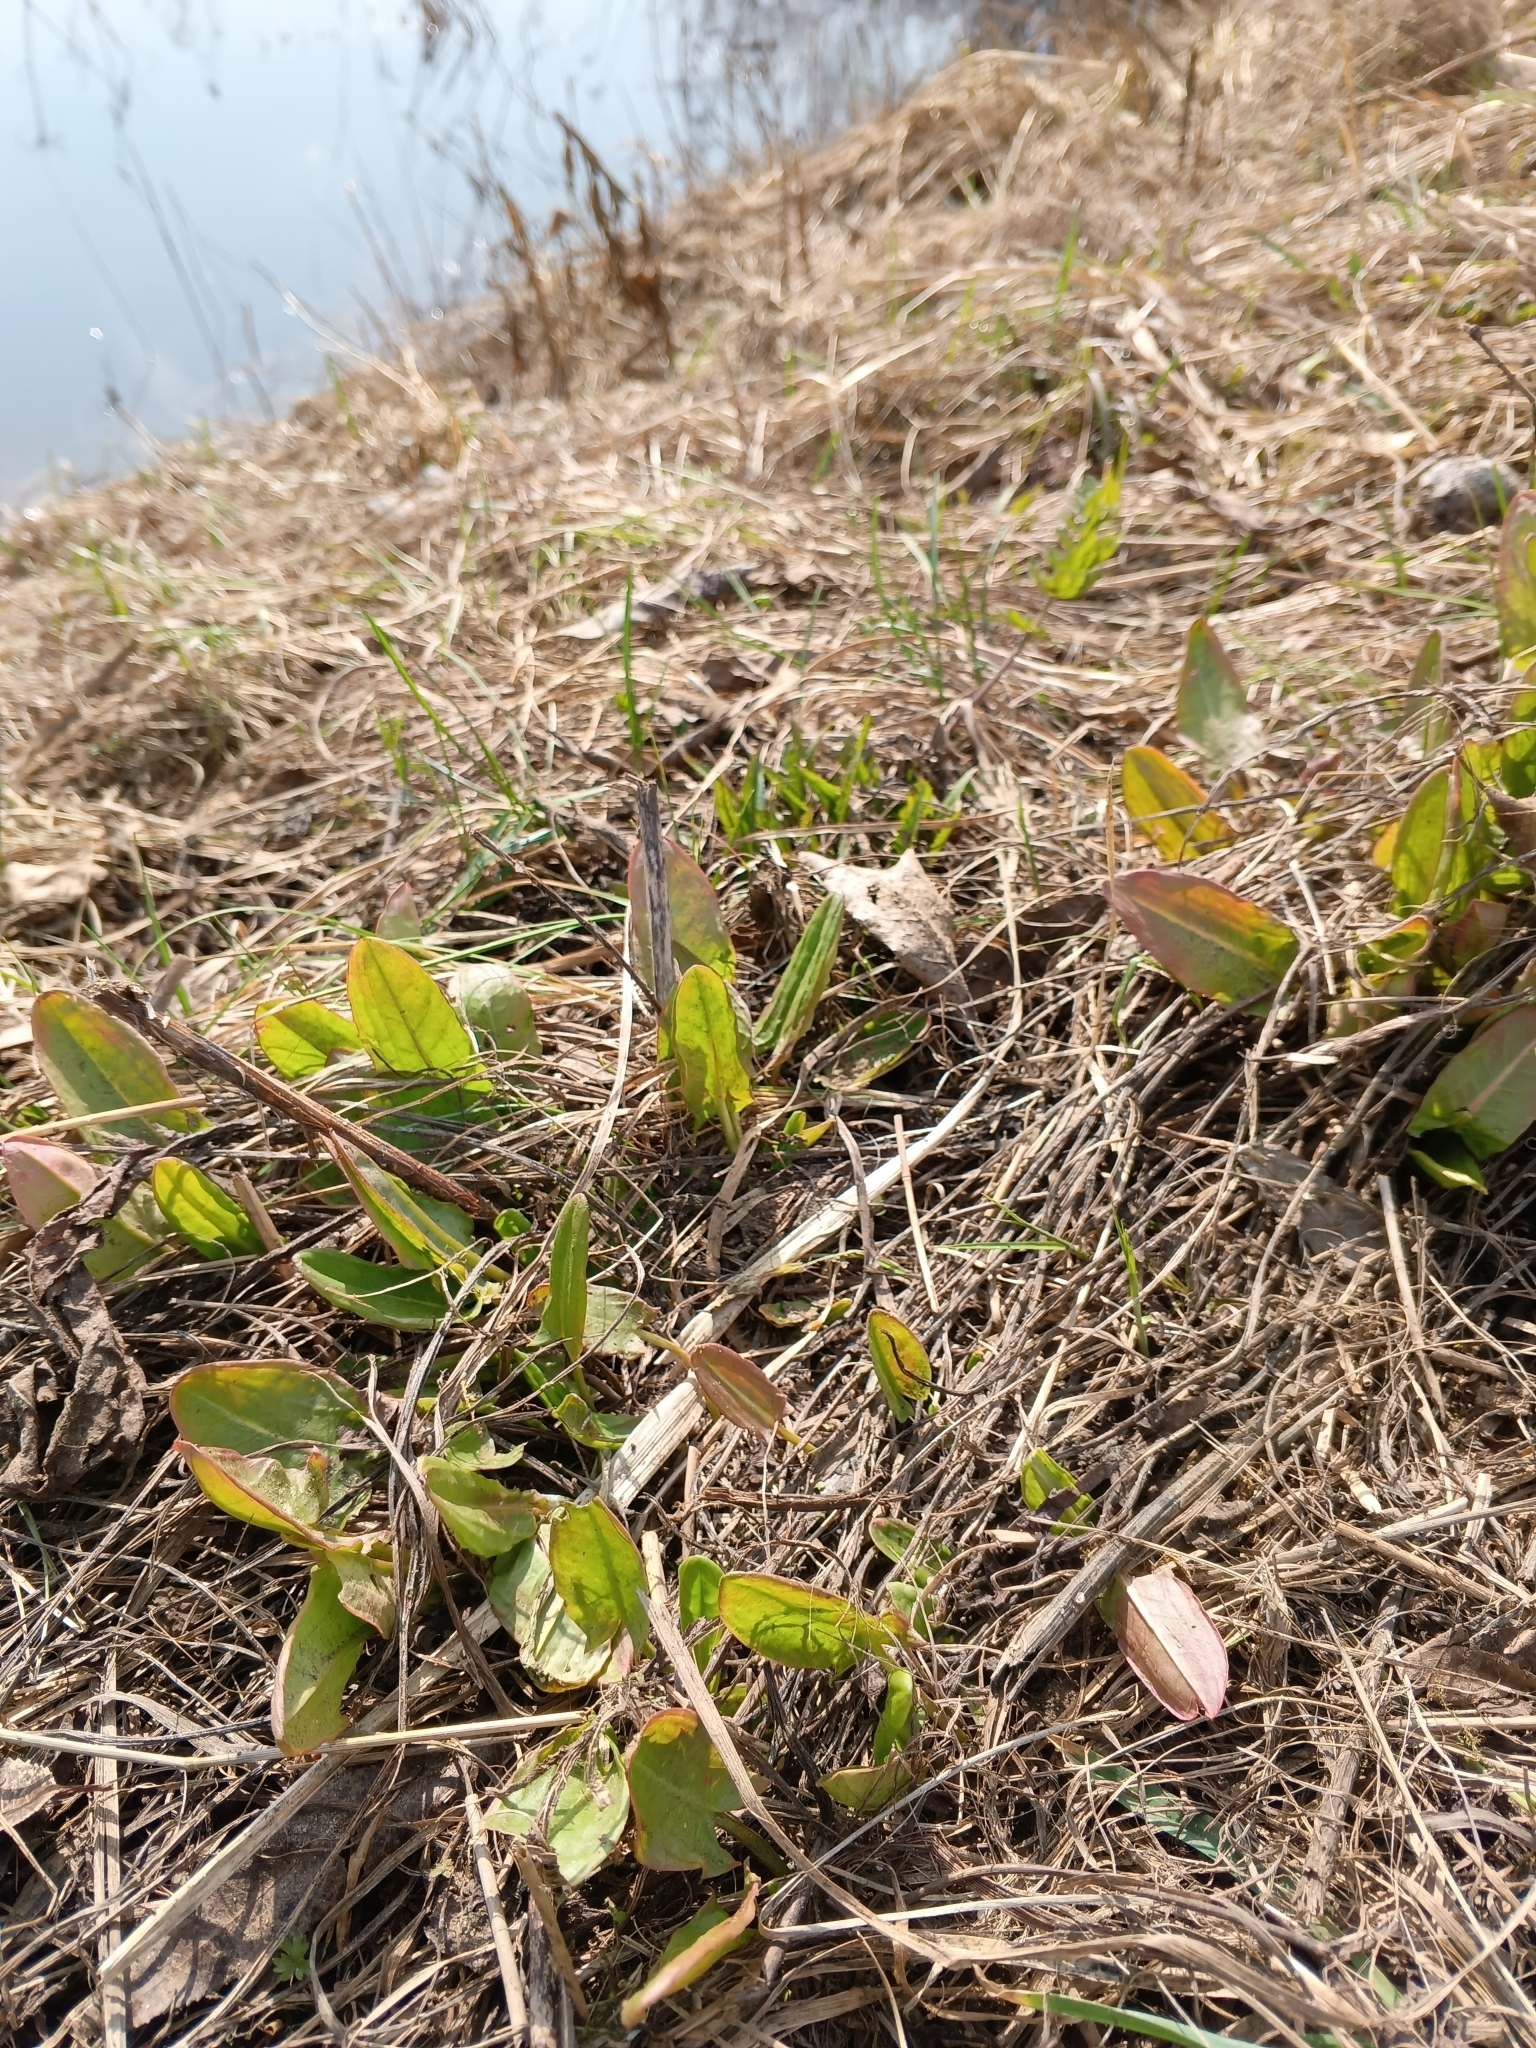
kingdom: Plantae
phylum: Tracheophyta
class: Magnoliopsida
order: Caryophyllales
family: Polygonaceae
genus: Rumex
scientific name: Rumex
